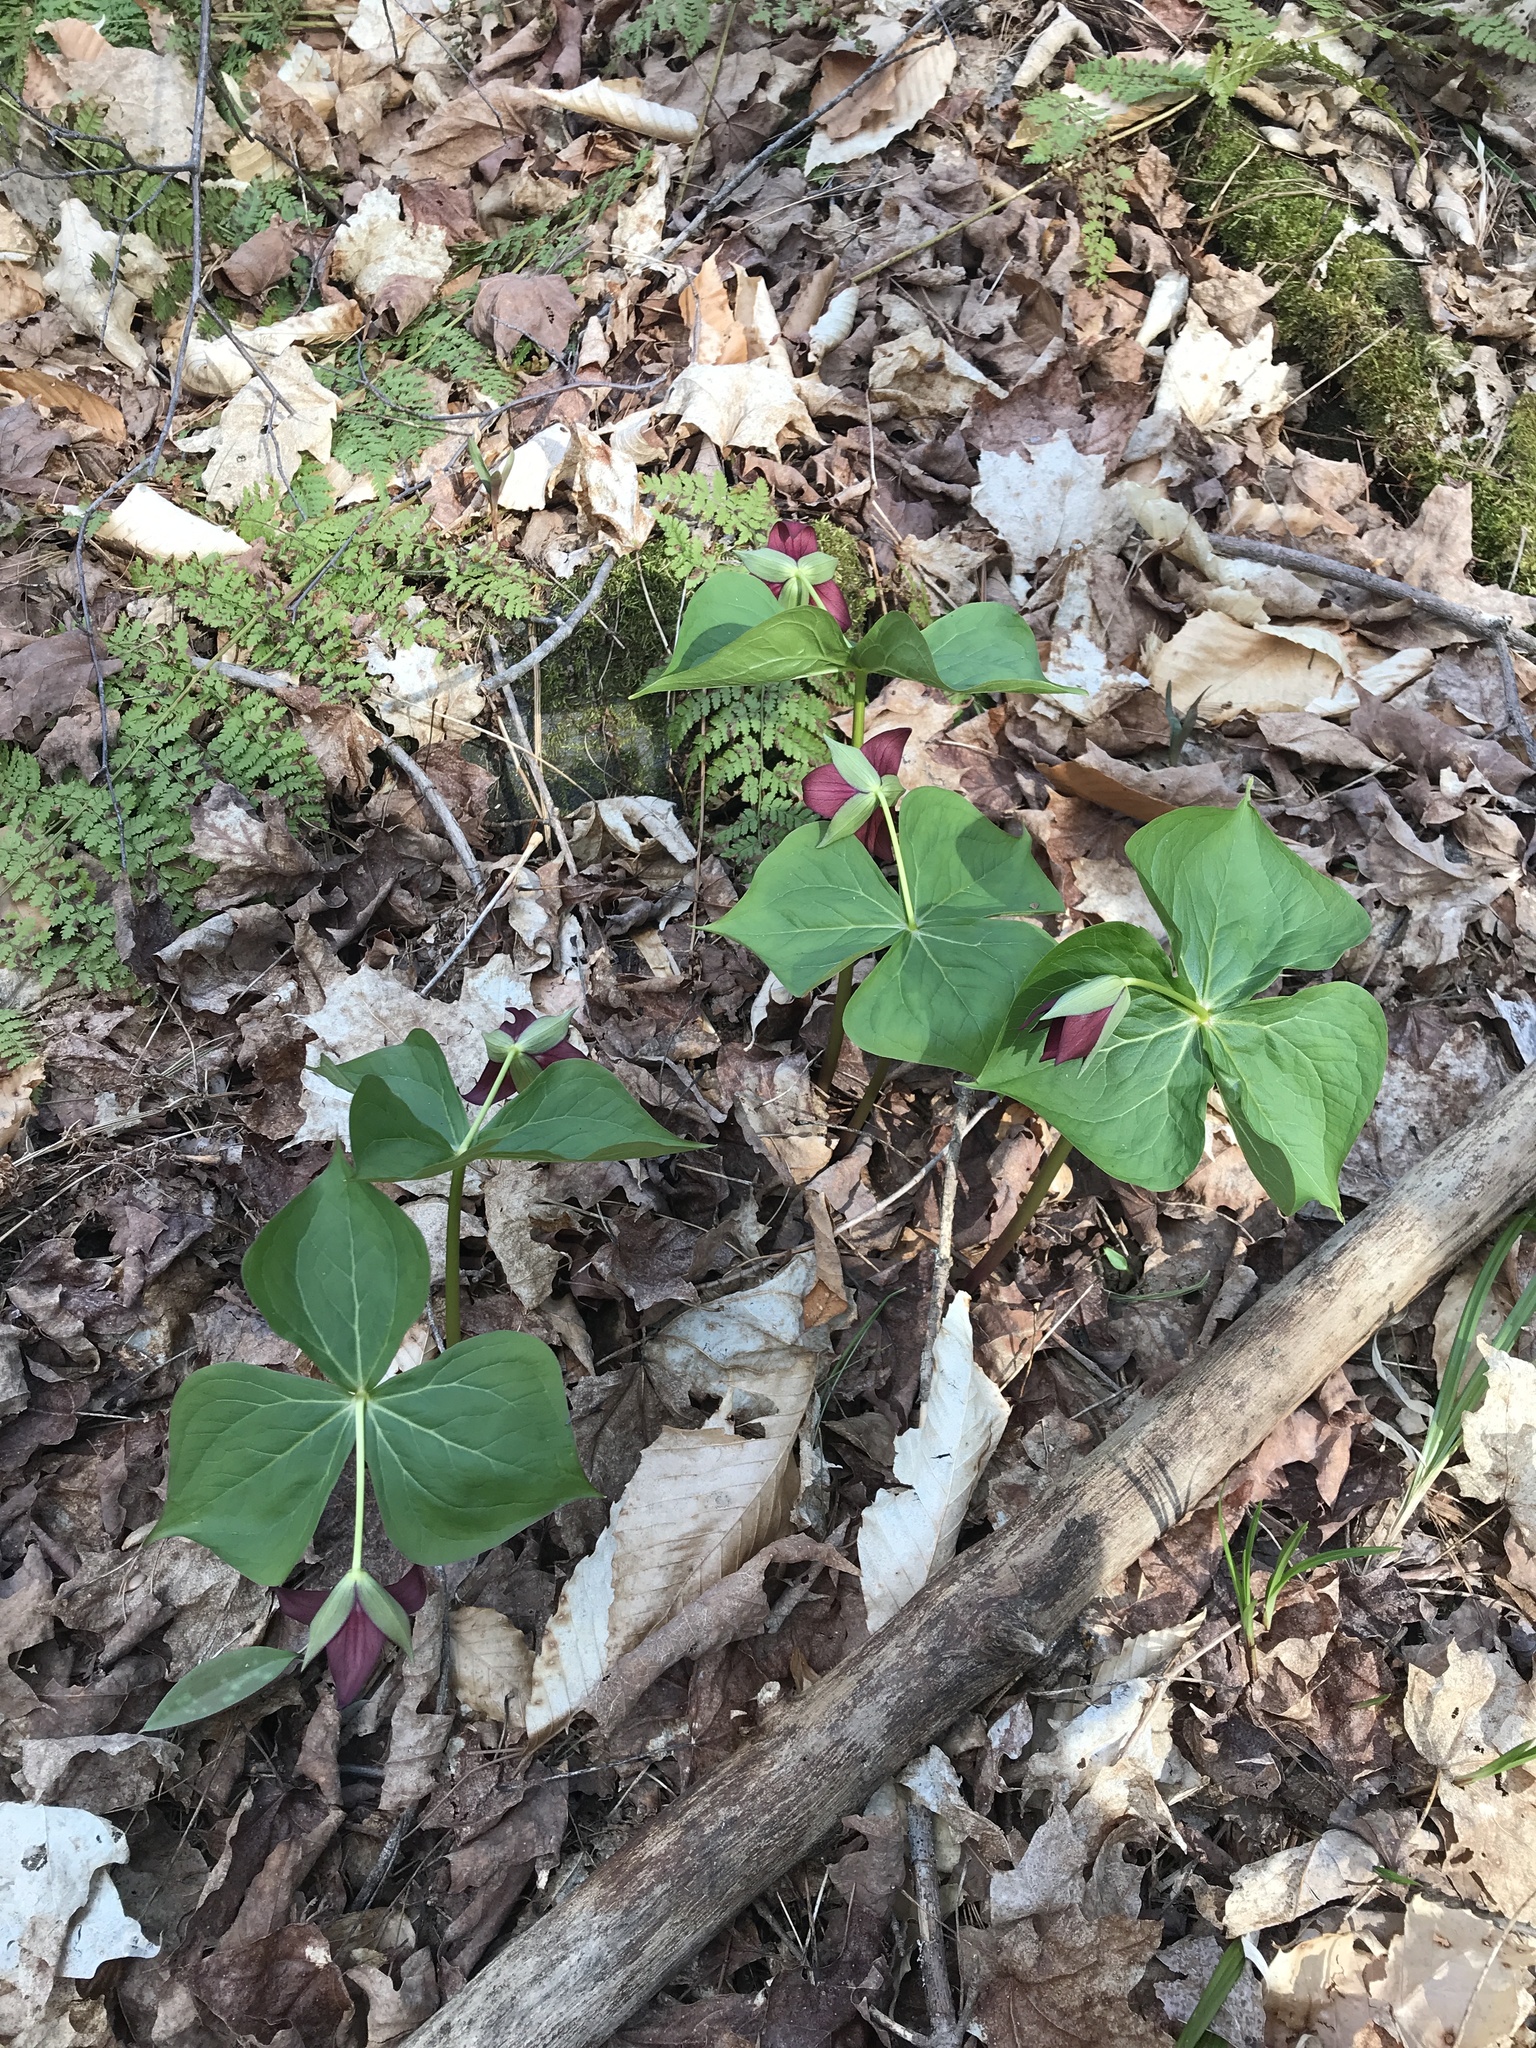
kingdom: Plantae
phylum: Tracheophyta
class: Liliopsida
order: Liliales
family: Melanthiaceae
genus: Trillium
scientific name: Trillium erectum
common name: Purple trillium
